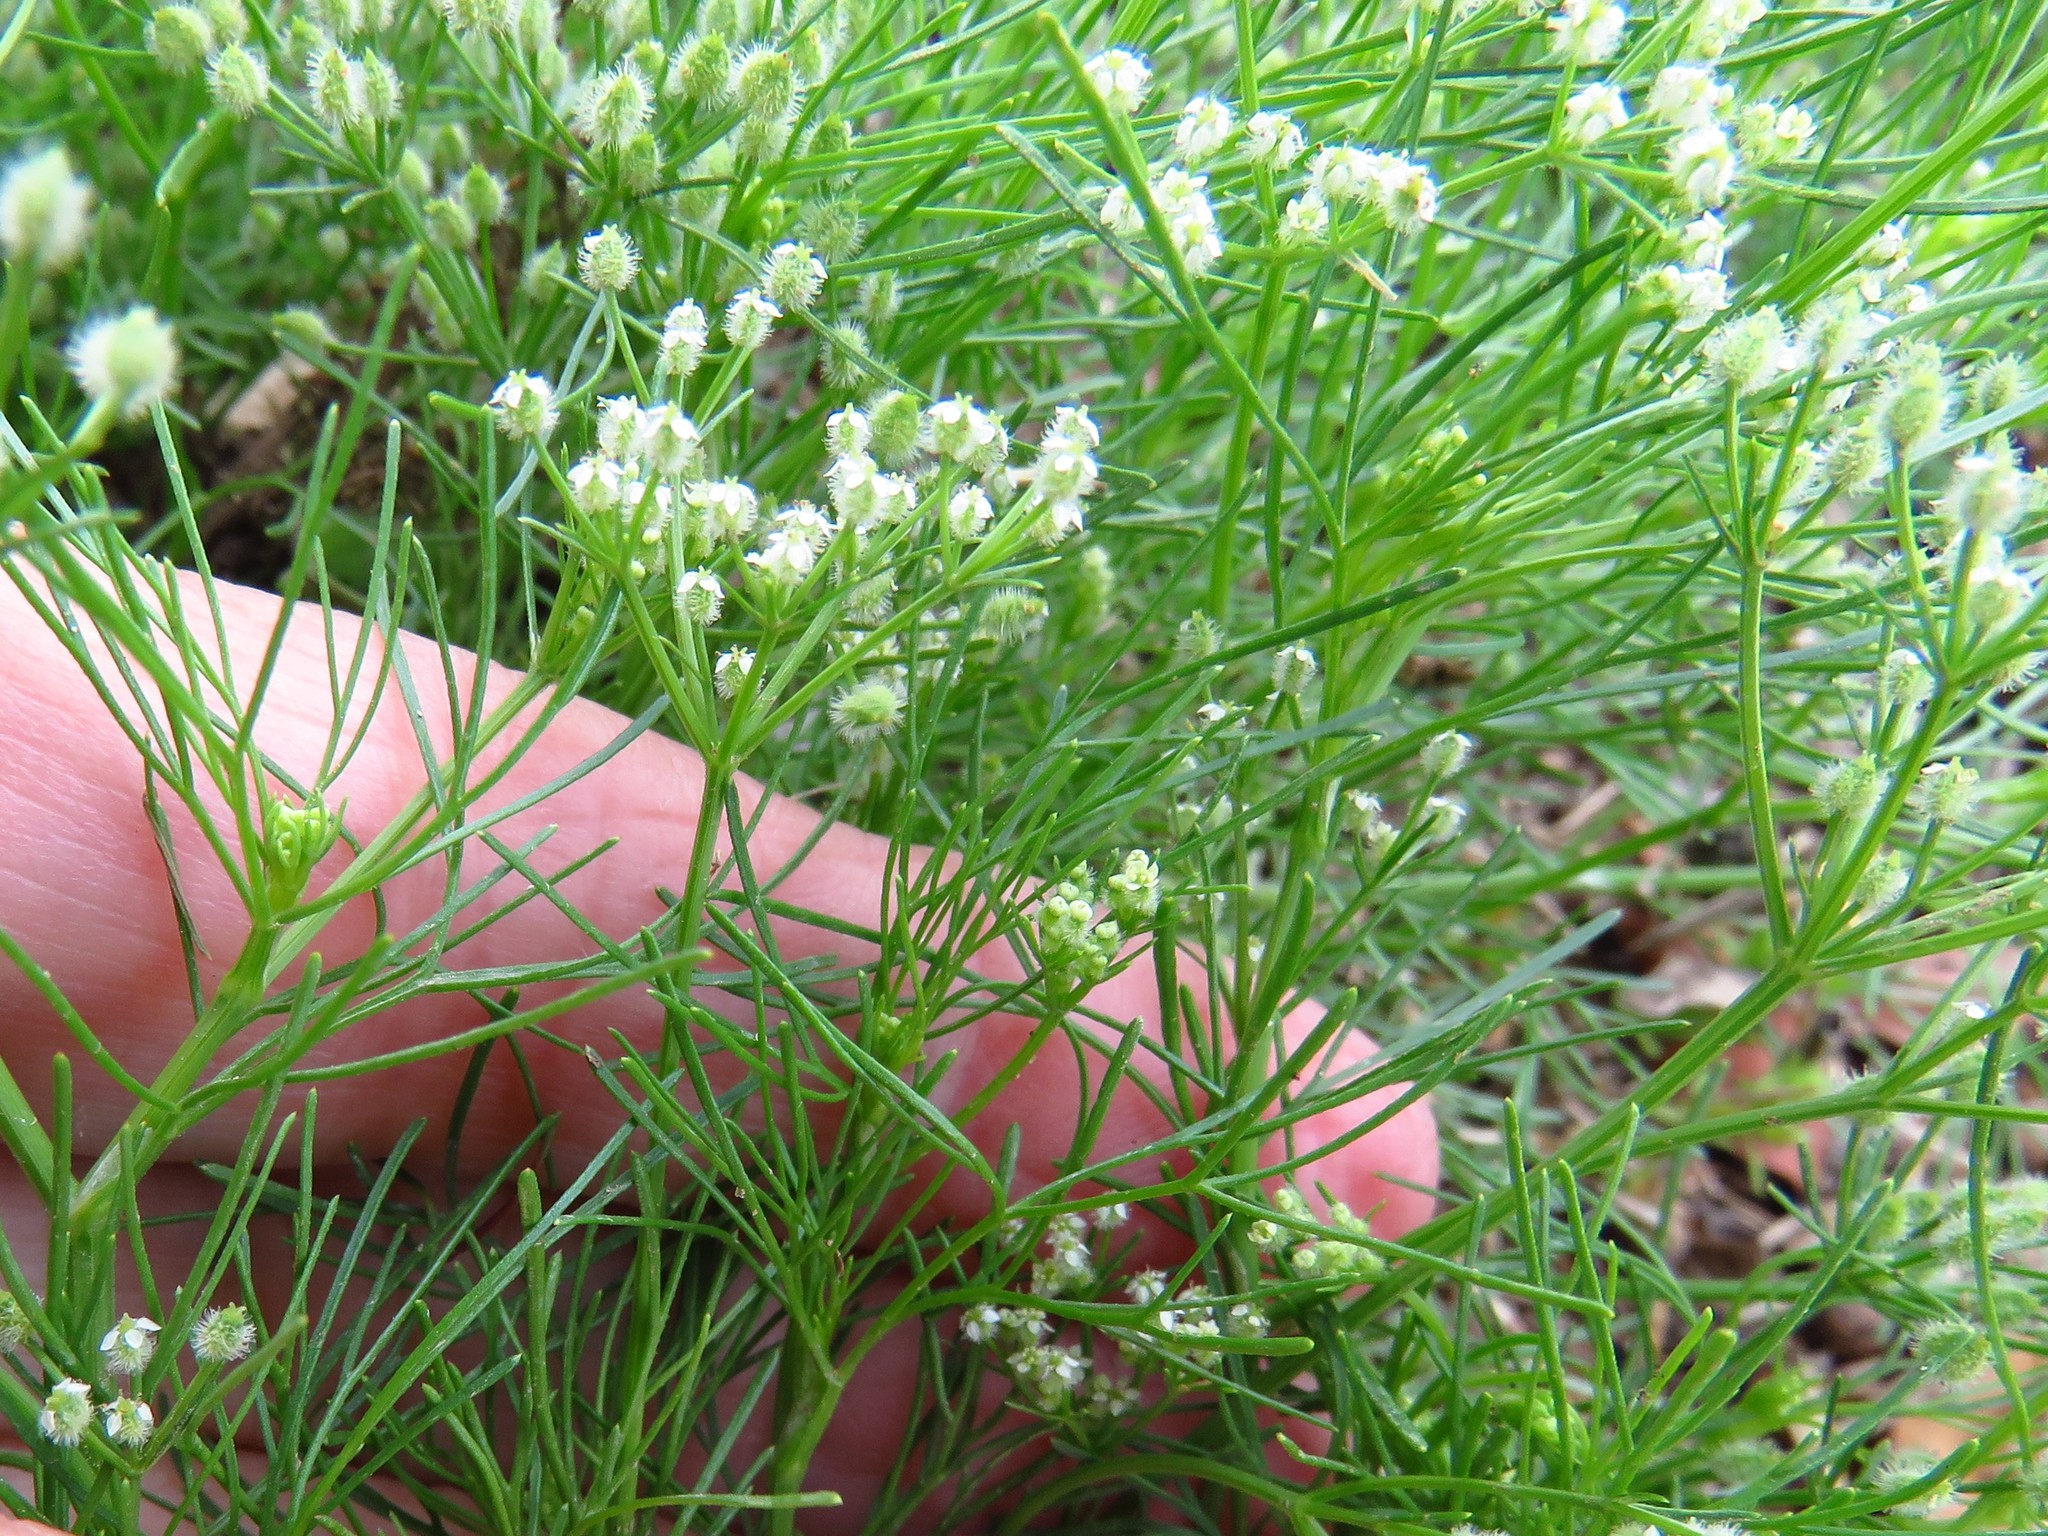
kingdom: Plantae
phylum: Tracheophyta
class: Magnoliopsida
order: Apiales
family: Apiaceae
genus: Spermolepis
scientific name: Spermolepis echinata
